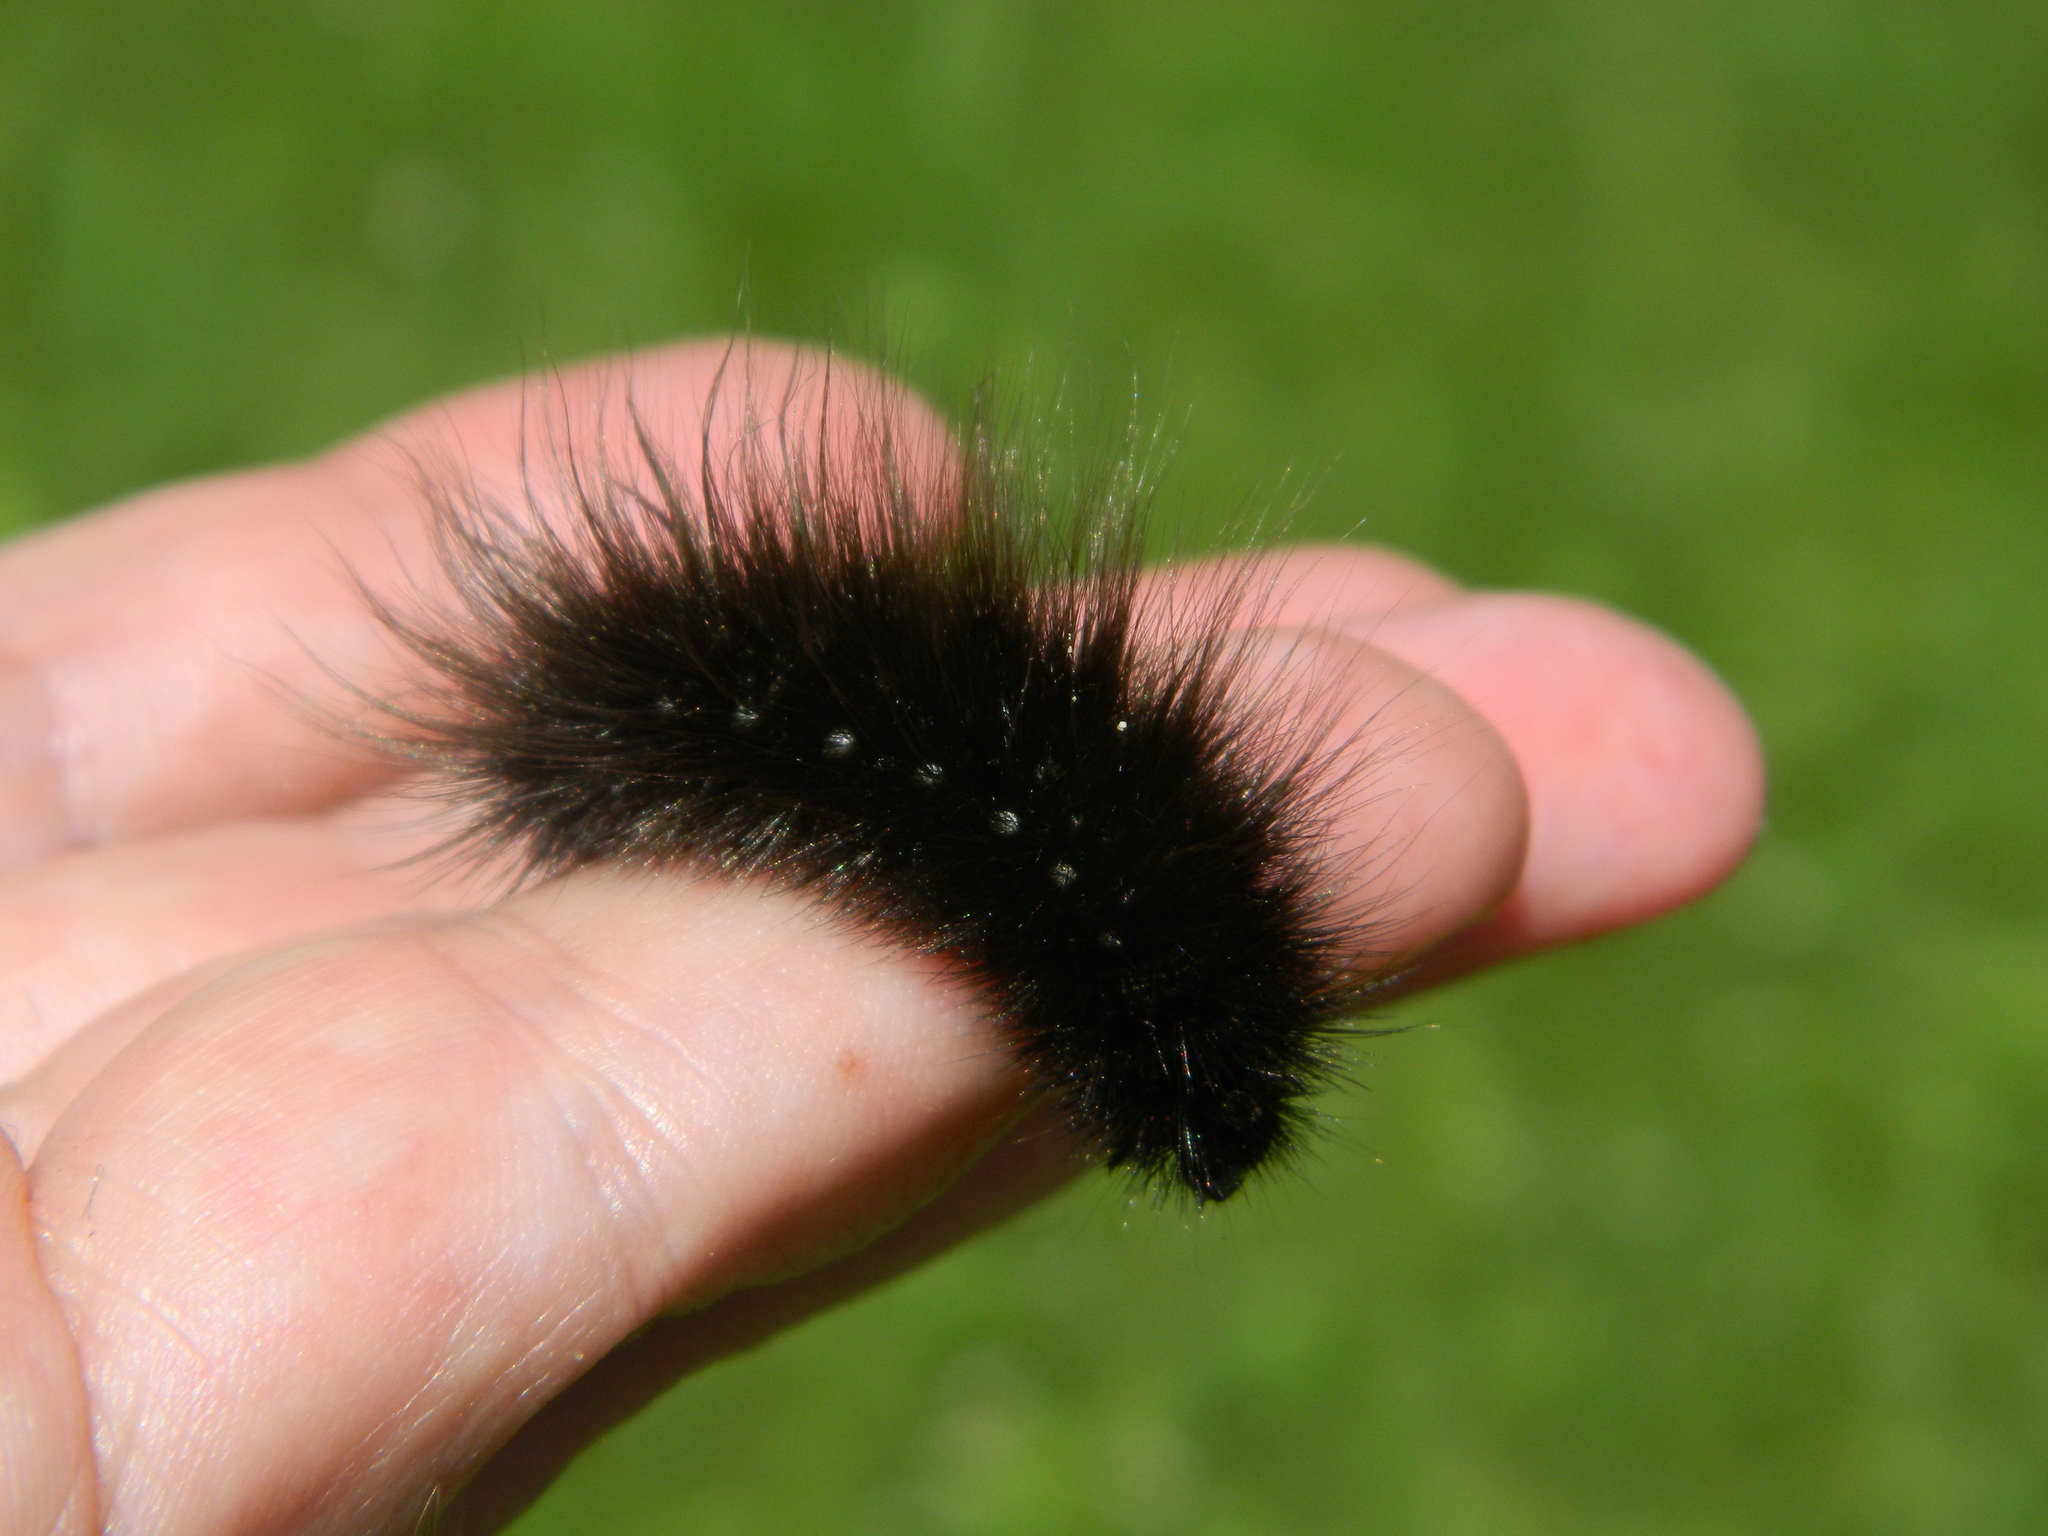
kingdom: Animalia
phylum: Arthropoda
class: Insecta
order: Lepidoptera
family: Erebidae
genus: Arctia
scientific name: Arctia parthenos
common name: St. lawrence tiger moth
